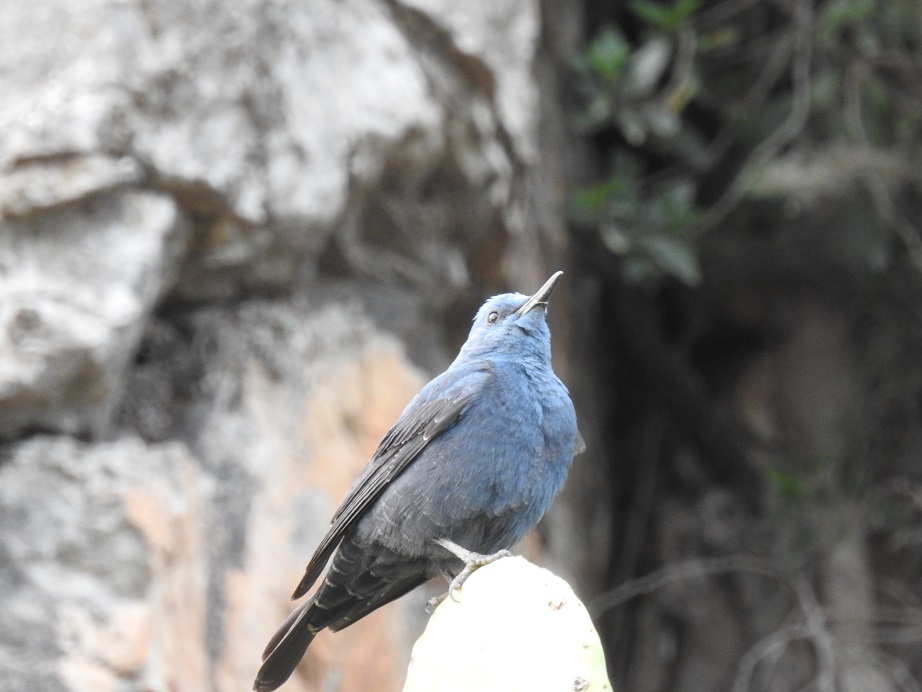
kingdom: Animalia
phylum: Chordata
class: Aves
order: Passeriformes
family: Muscicapidae
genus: Monticola
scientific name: Monticola solitarius
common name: Blue rock thrush
